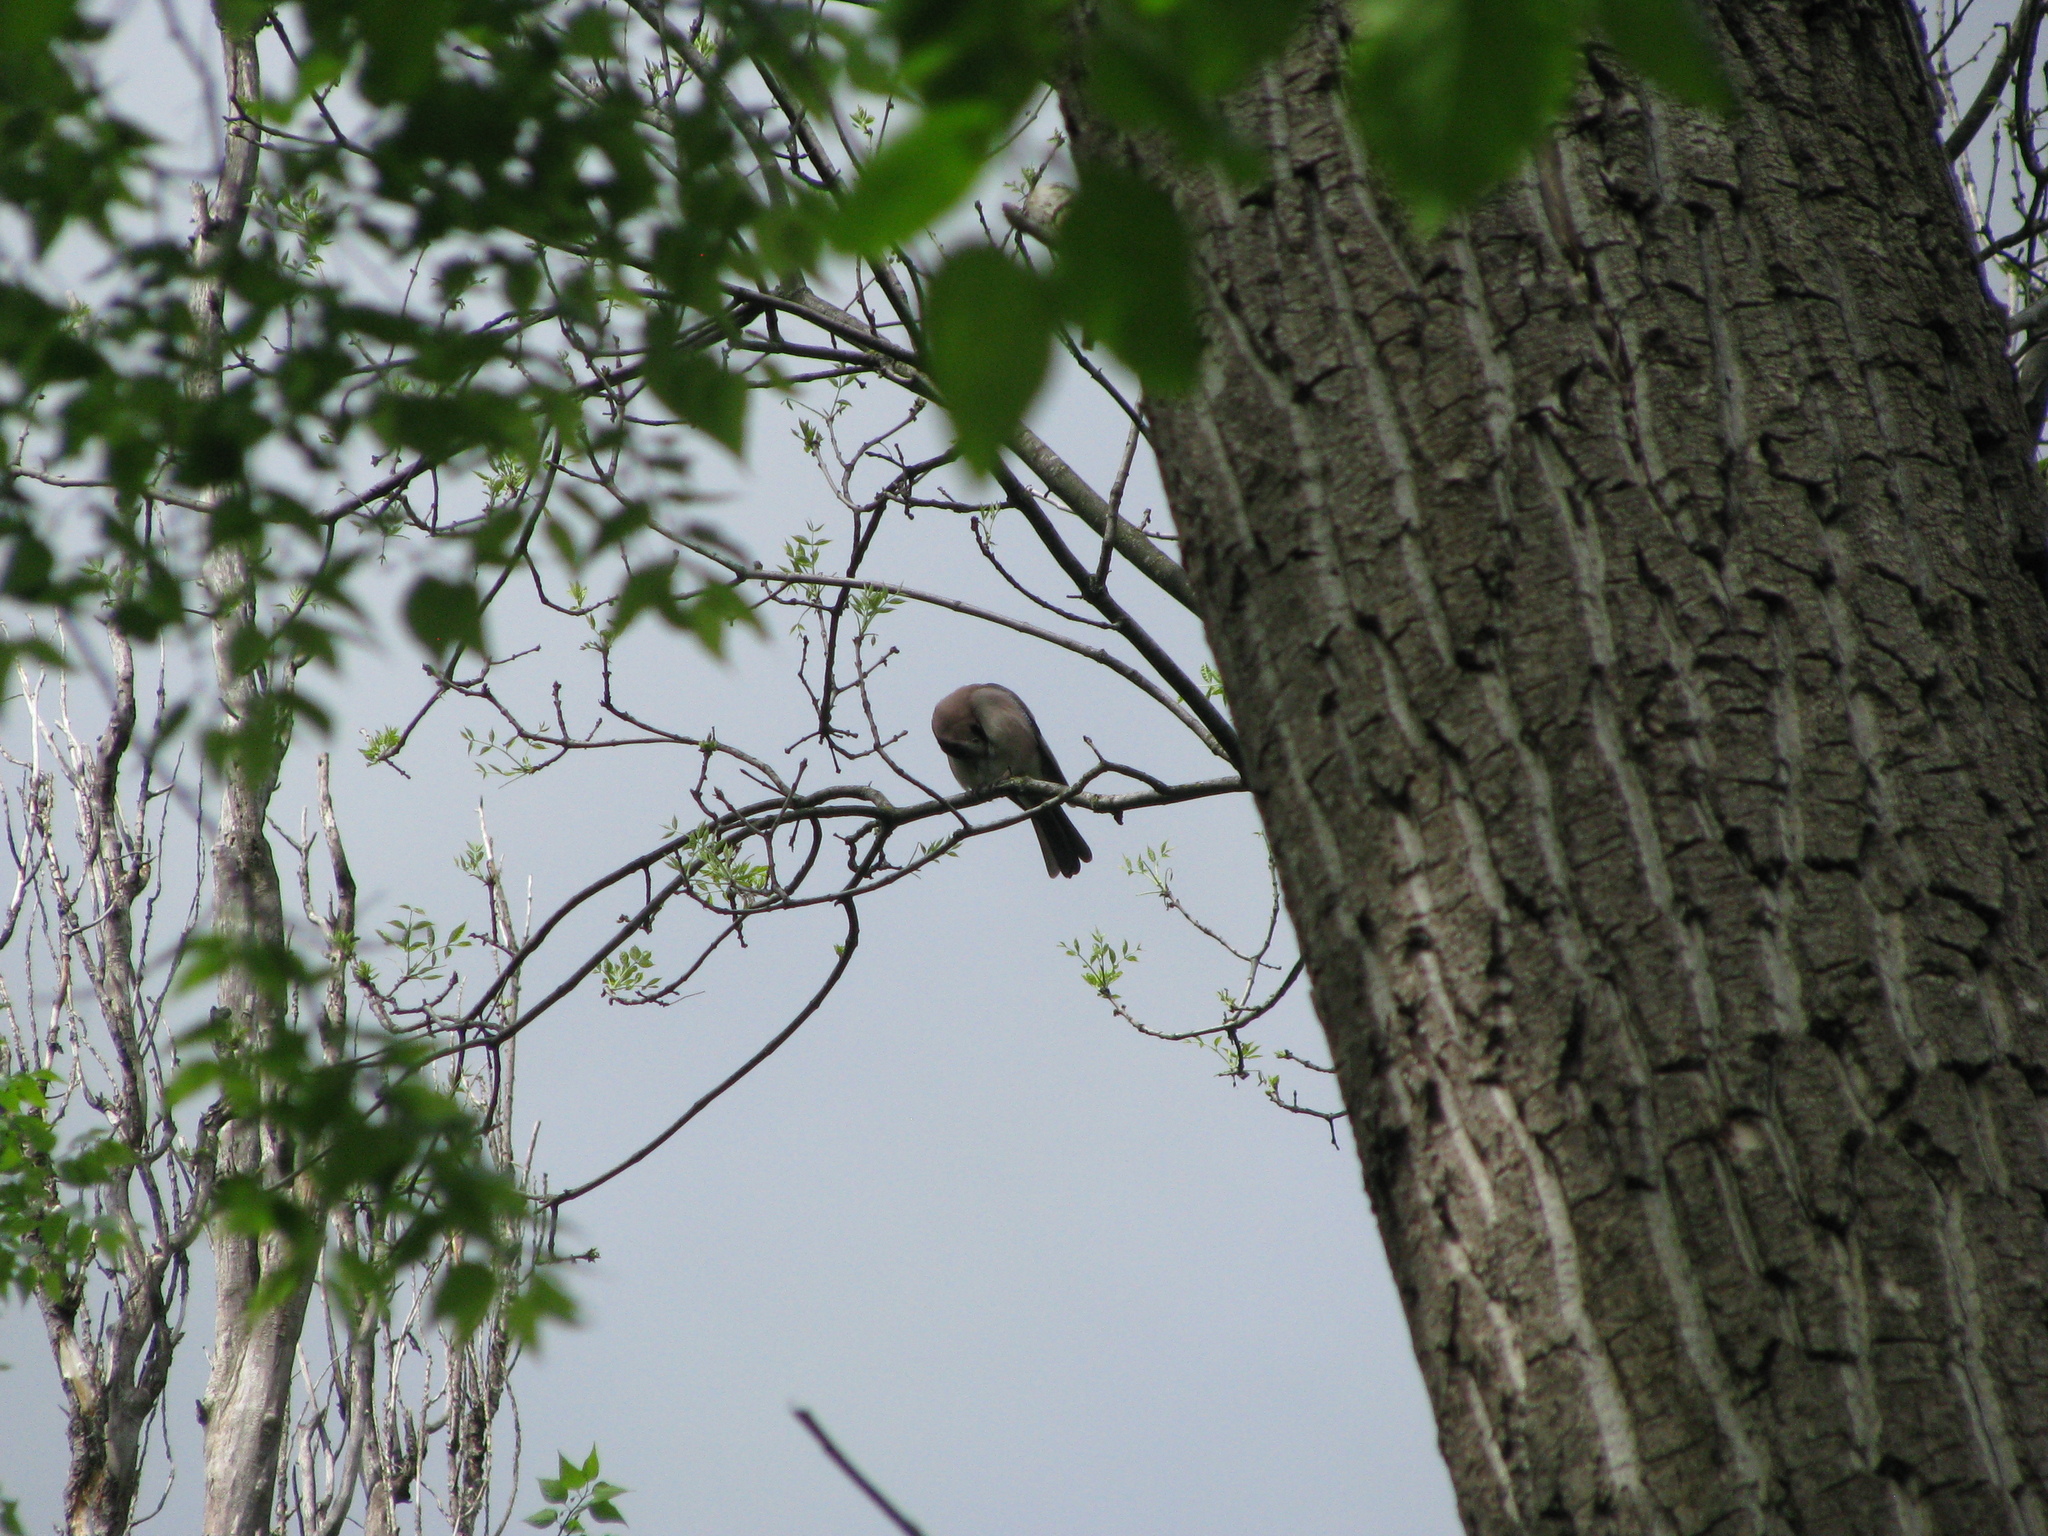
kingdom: Animalia
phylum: Chordata
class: Aves
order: Passeriformes
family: Corvidae
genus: Garrulus
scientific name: Garrulus glandarius
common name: Eurasian jay
